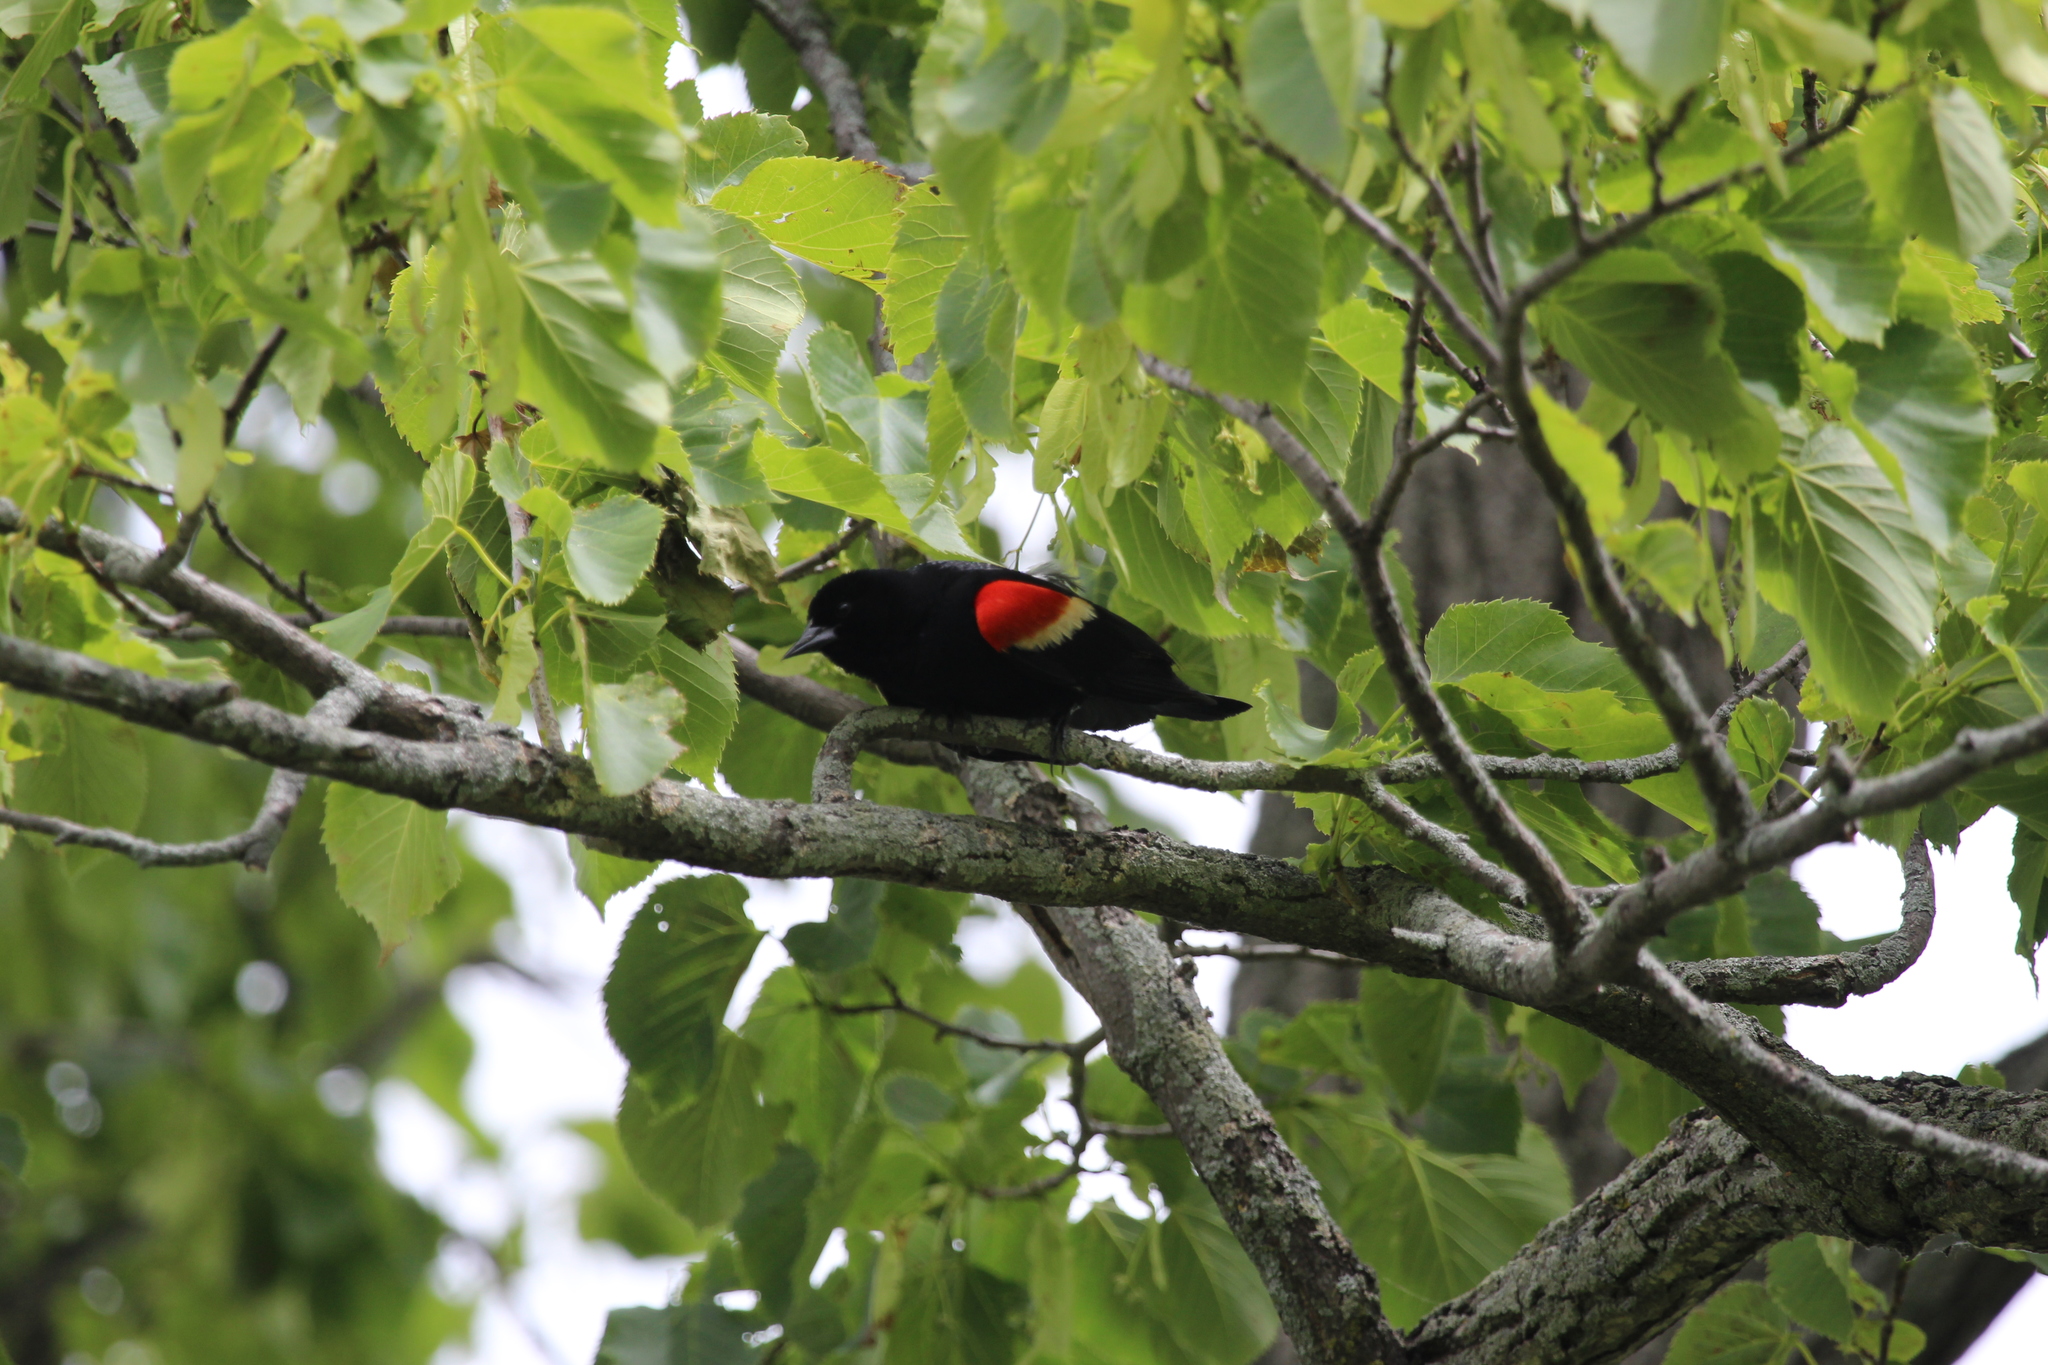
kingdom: Animalia
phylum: Chordata
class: Aves
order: Passeriformes
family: Icteridae
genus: Agelaius
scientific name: Agelaius phoeniceus
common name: Red-winged blackbird
